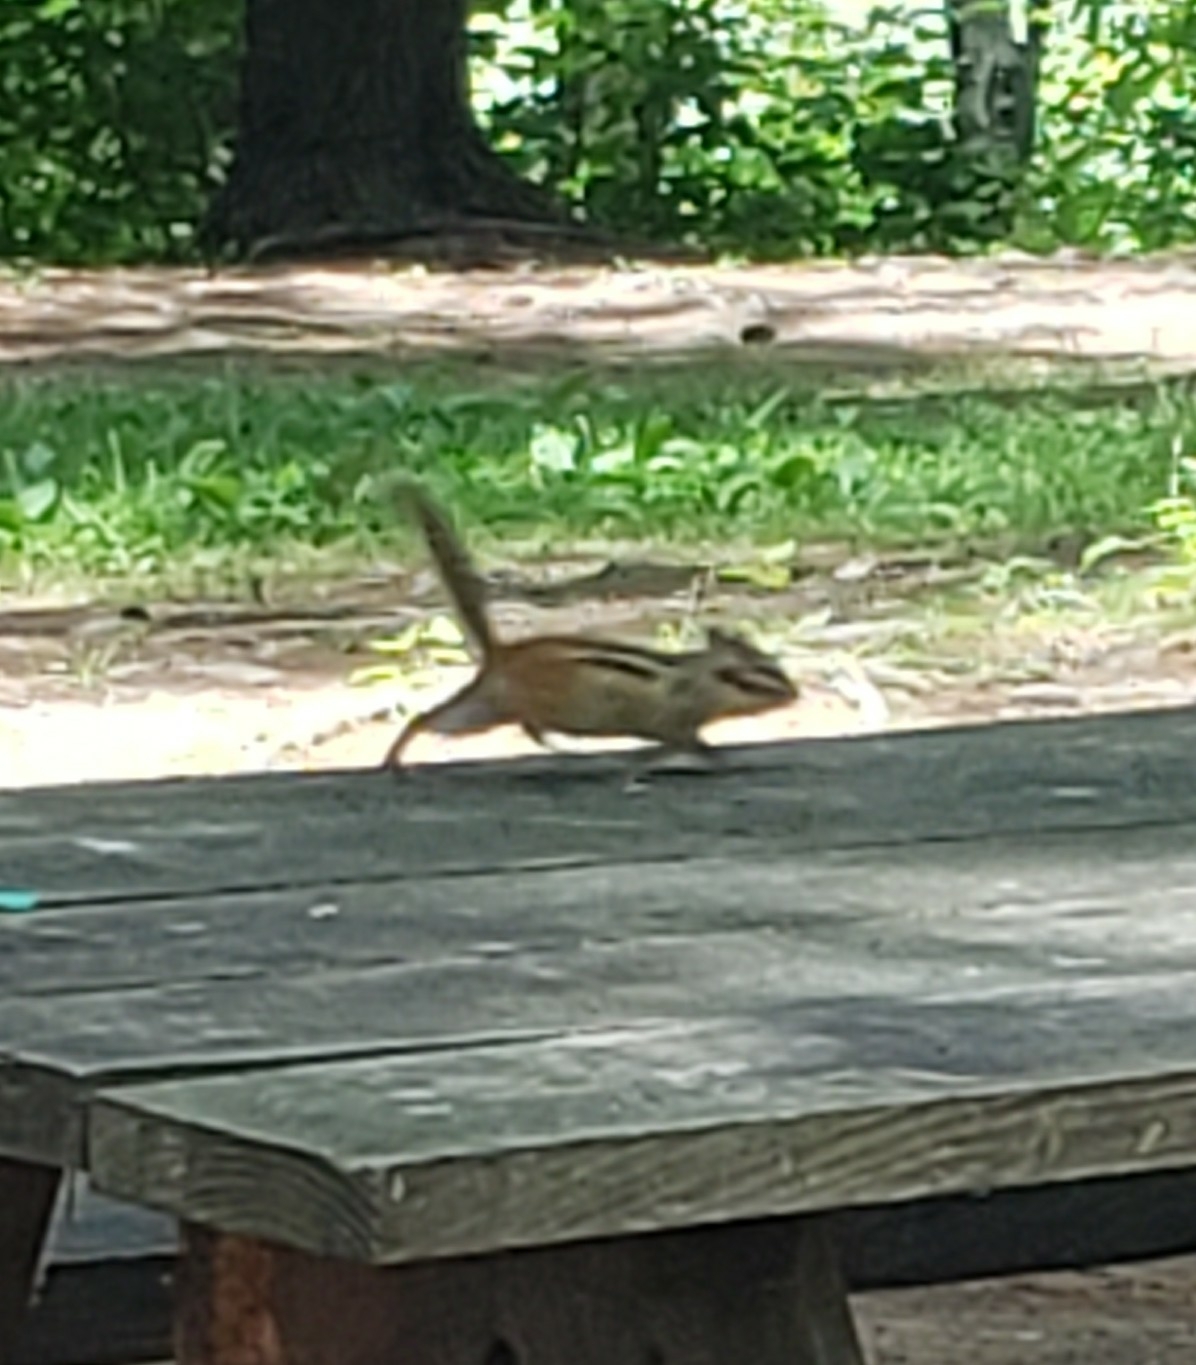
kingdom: Animalia
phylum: Chordata
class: Mammalia
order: Rodentia
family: Sciuridae
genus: Tamias
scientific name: Tamias striatus
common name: Eastern chipmunk
